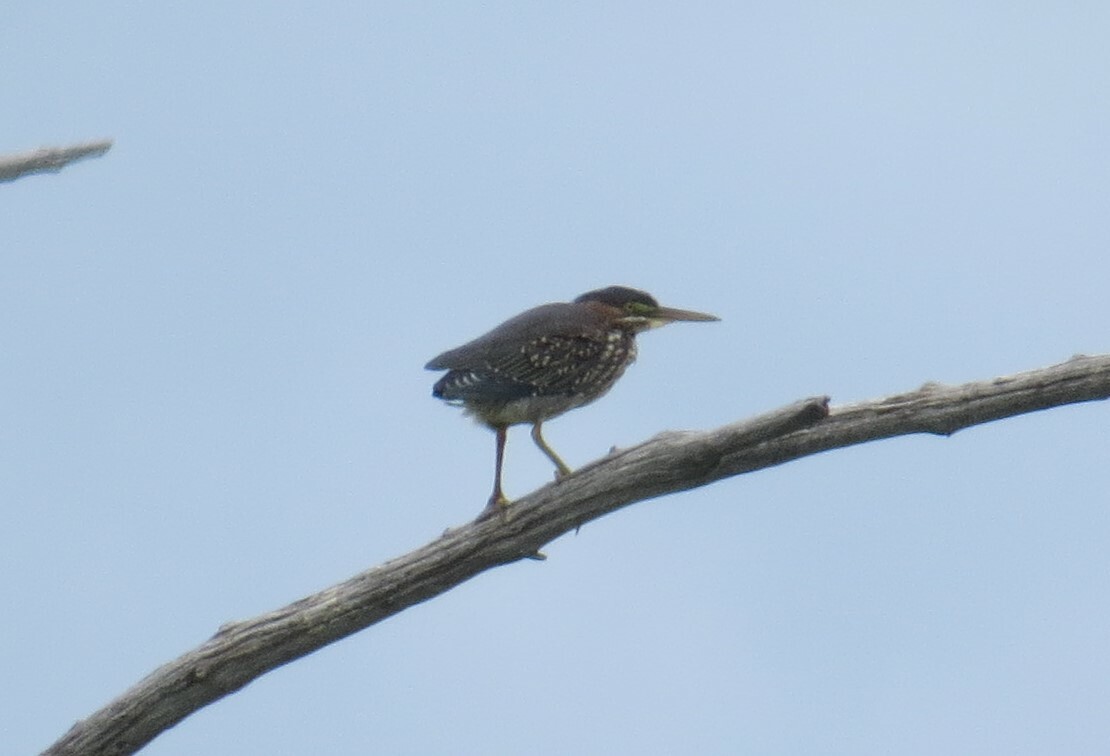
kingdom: Animalia
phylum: Chordata
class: Aves
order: Pelecaniformes
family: Ardeidae
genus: Butorides
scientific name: Butorides virescens
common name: Green heron
